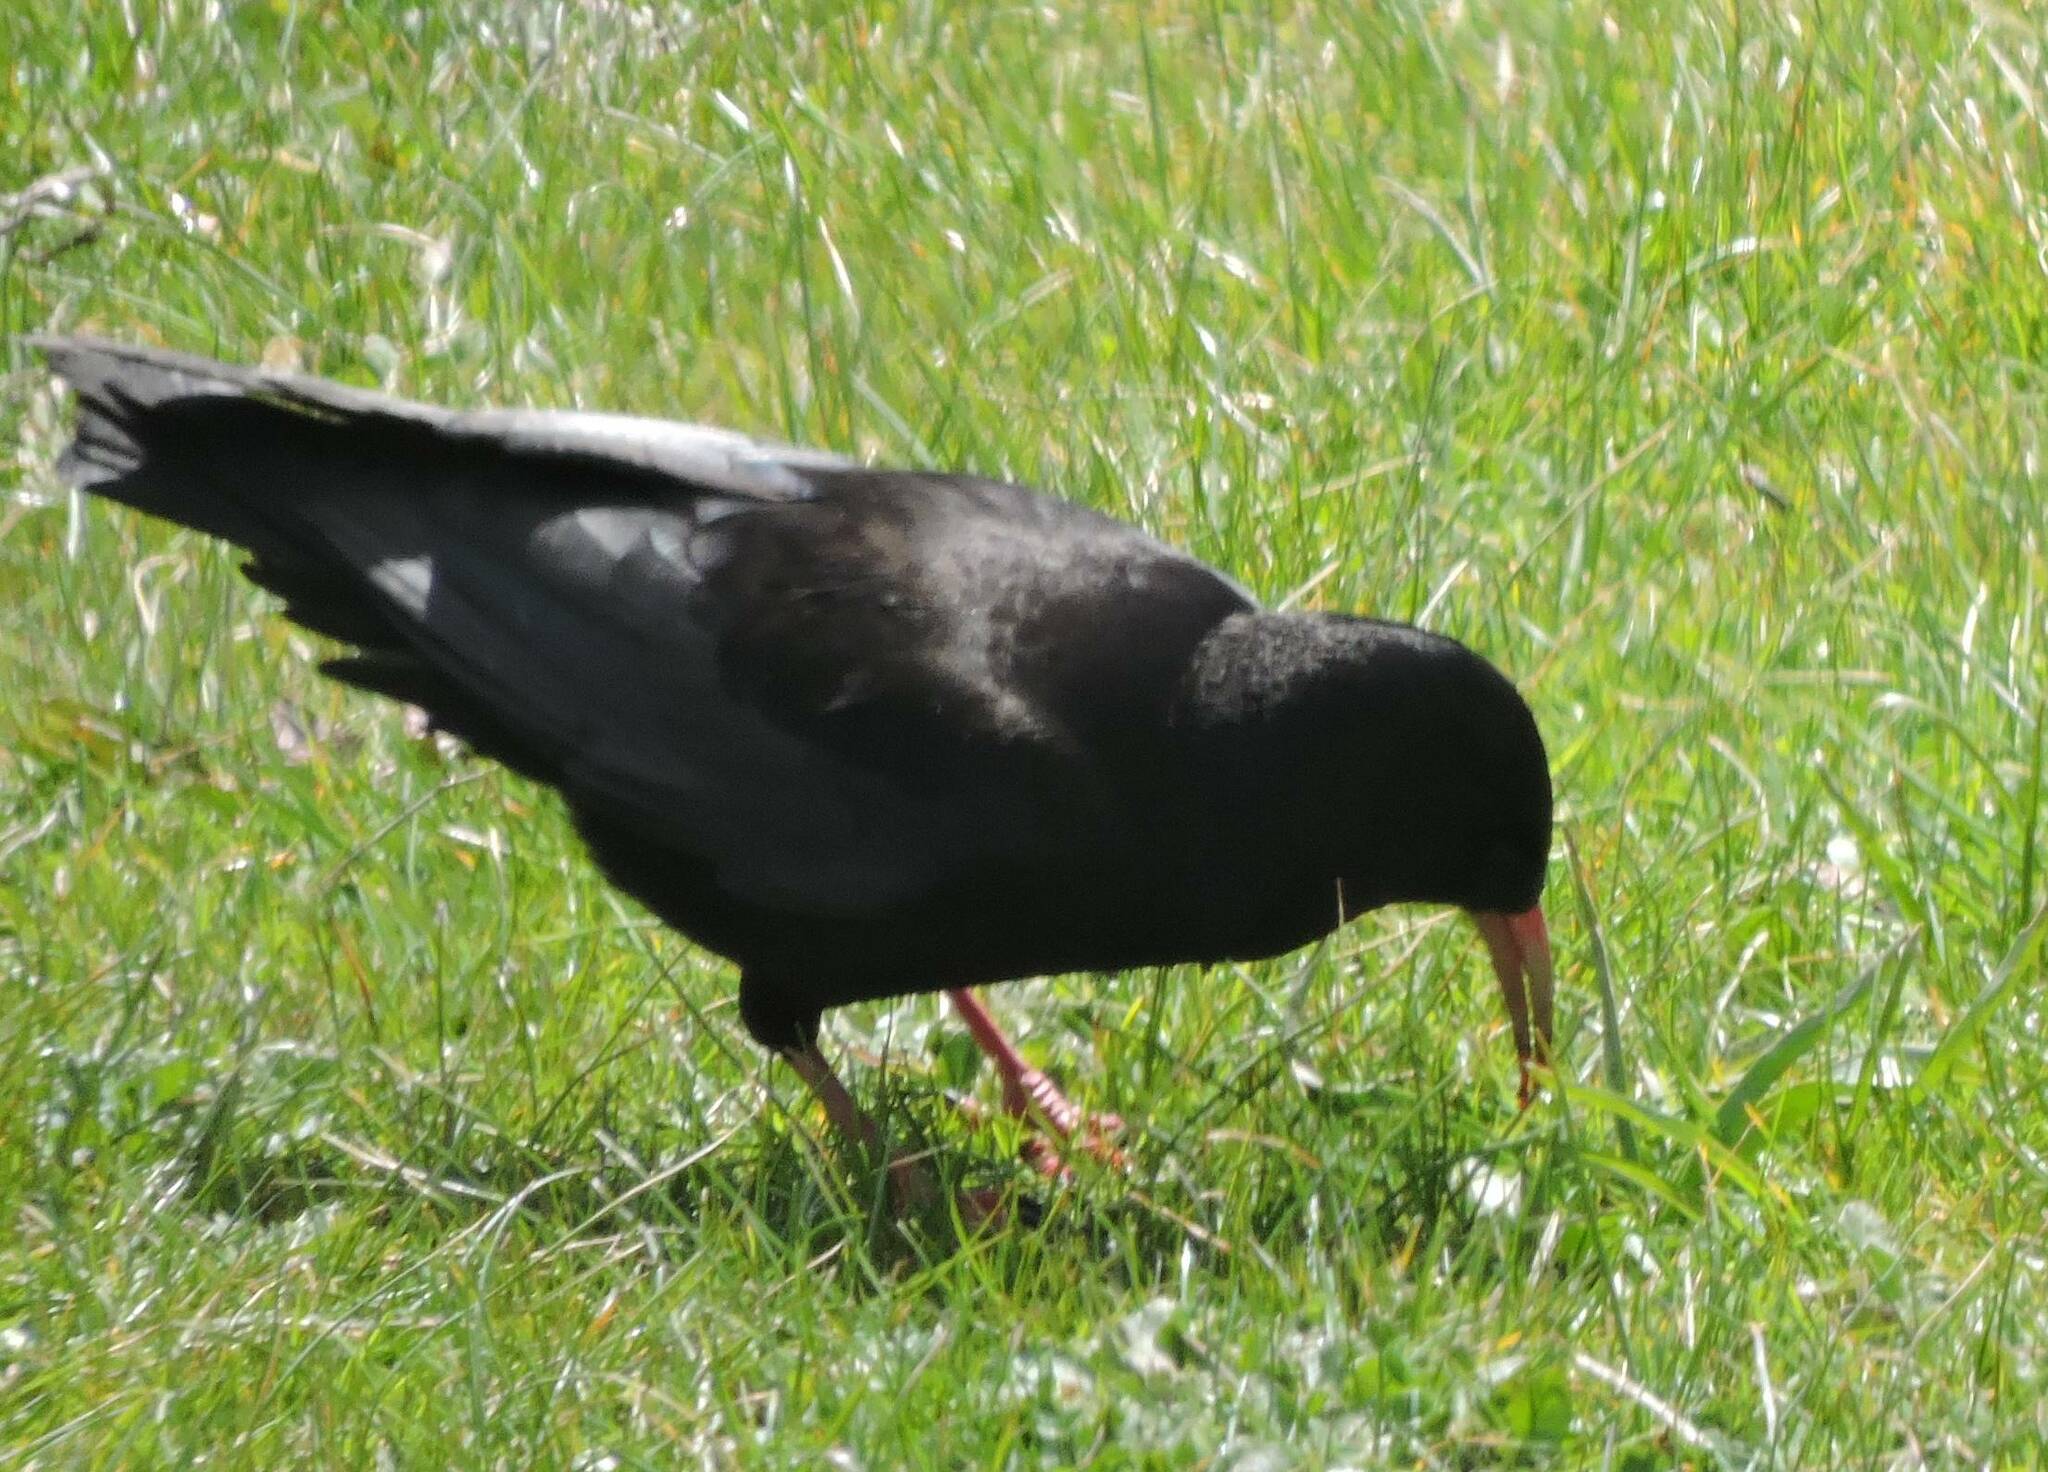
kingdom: Animalia
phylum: Chordata
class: Aves
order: Passeriformes
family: Corvidae
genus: Pyrrhocorax
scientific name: Pyrrhocorax pyrrhocorax
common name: Red-billed chough
